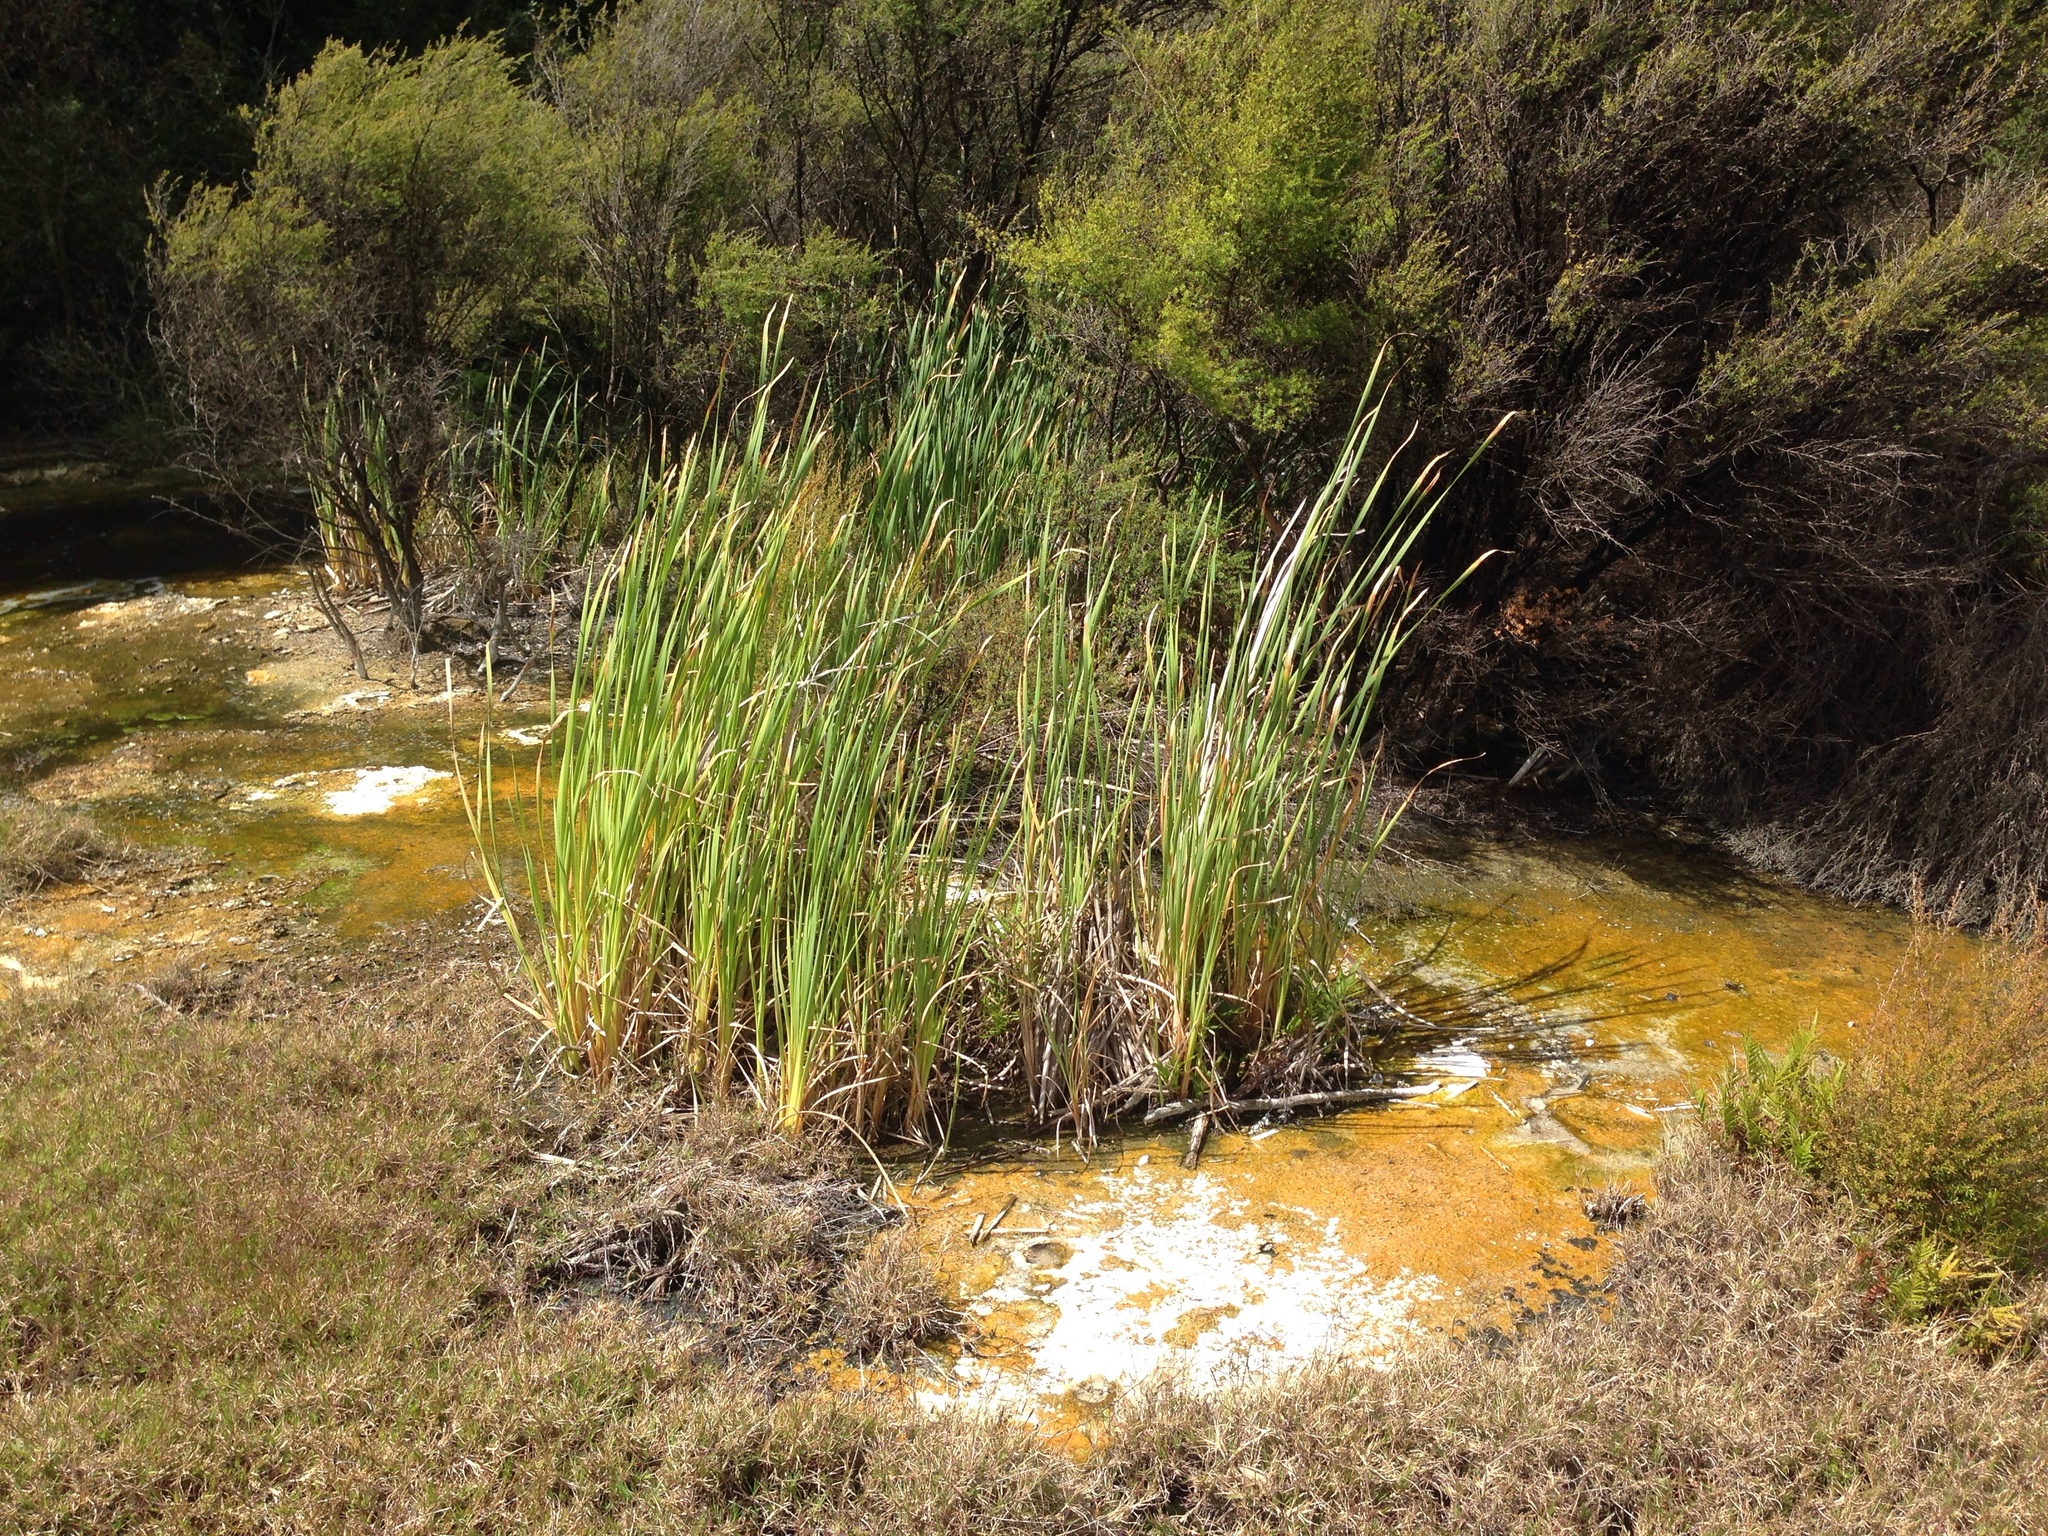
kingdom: Plantae
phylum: Tracheophyta
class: Liliopsida
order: Poales
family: Typhaceae
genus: Typha
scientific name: Typha orientalis
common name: Bullrush
